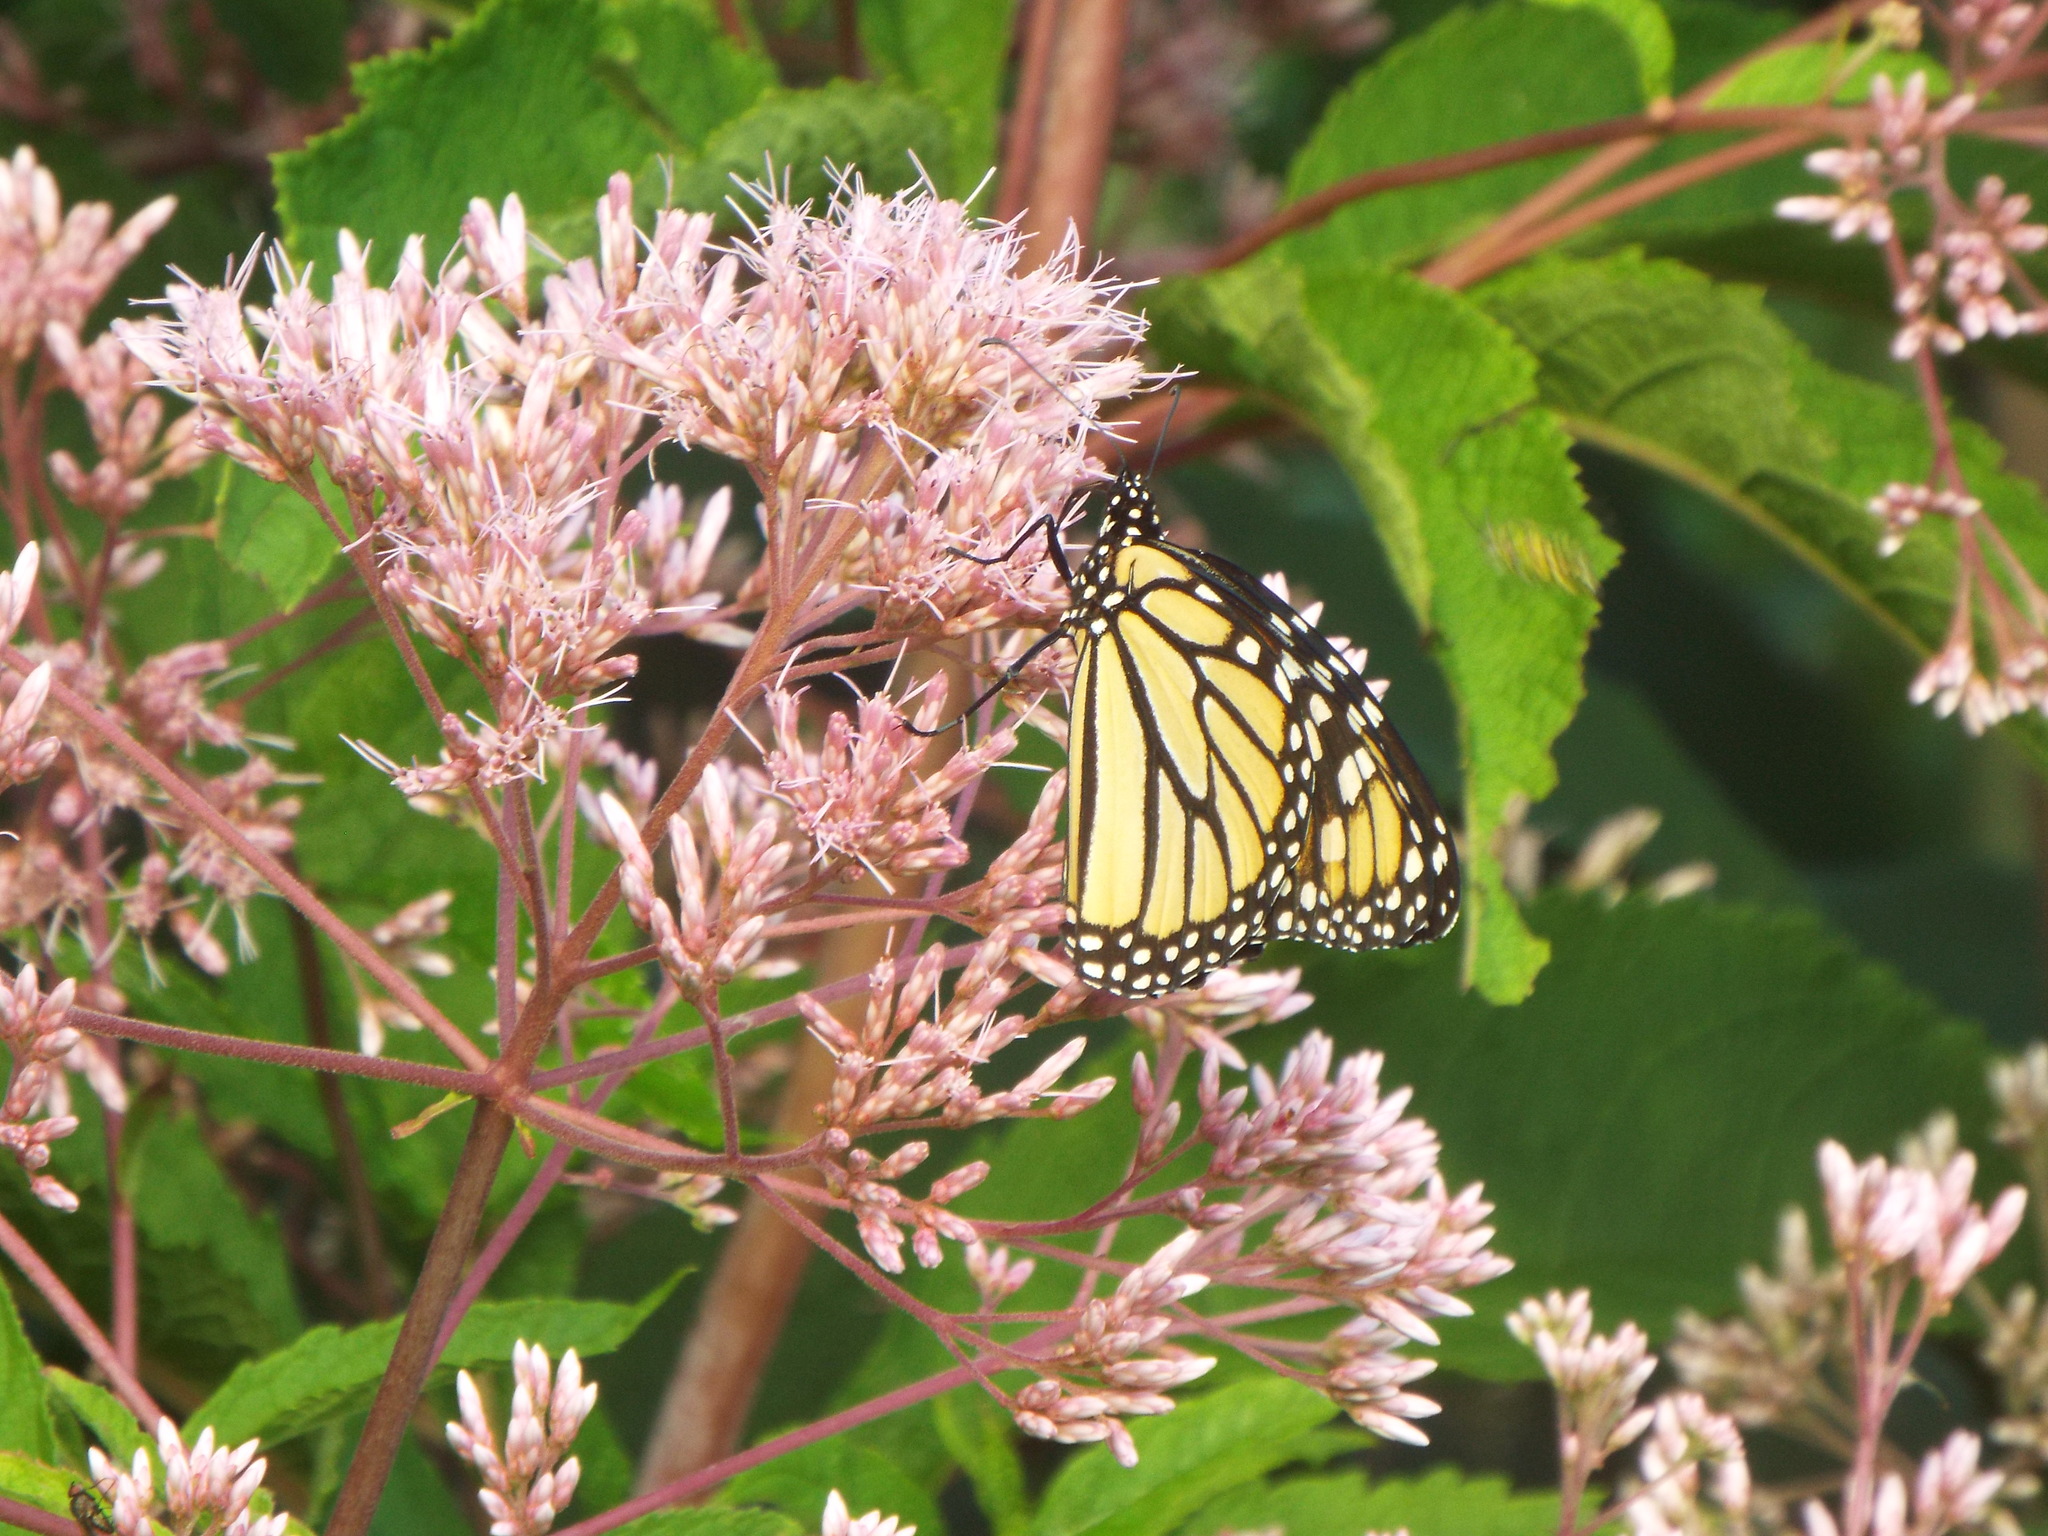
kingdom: Animalia
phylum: Arthropoda
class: Insecta
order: Lepidoptera
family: Nymphalidae
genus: Danaus
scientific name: Danaus plexippus
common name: Monarch
